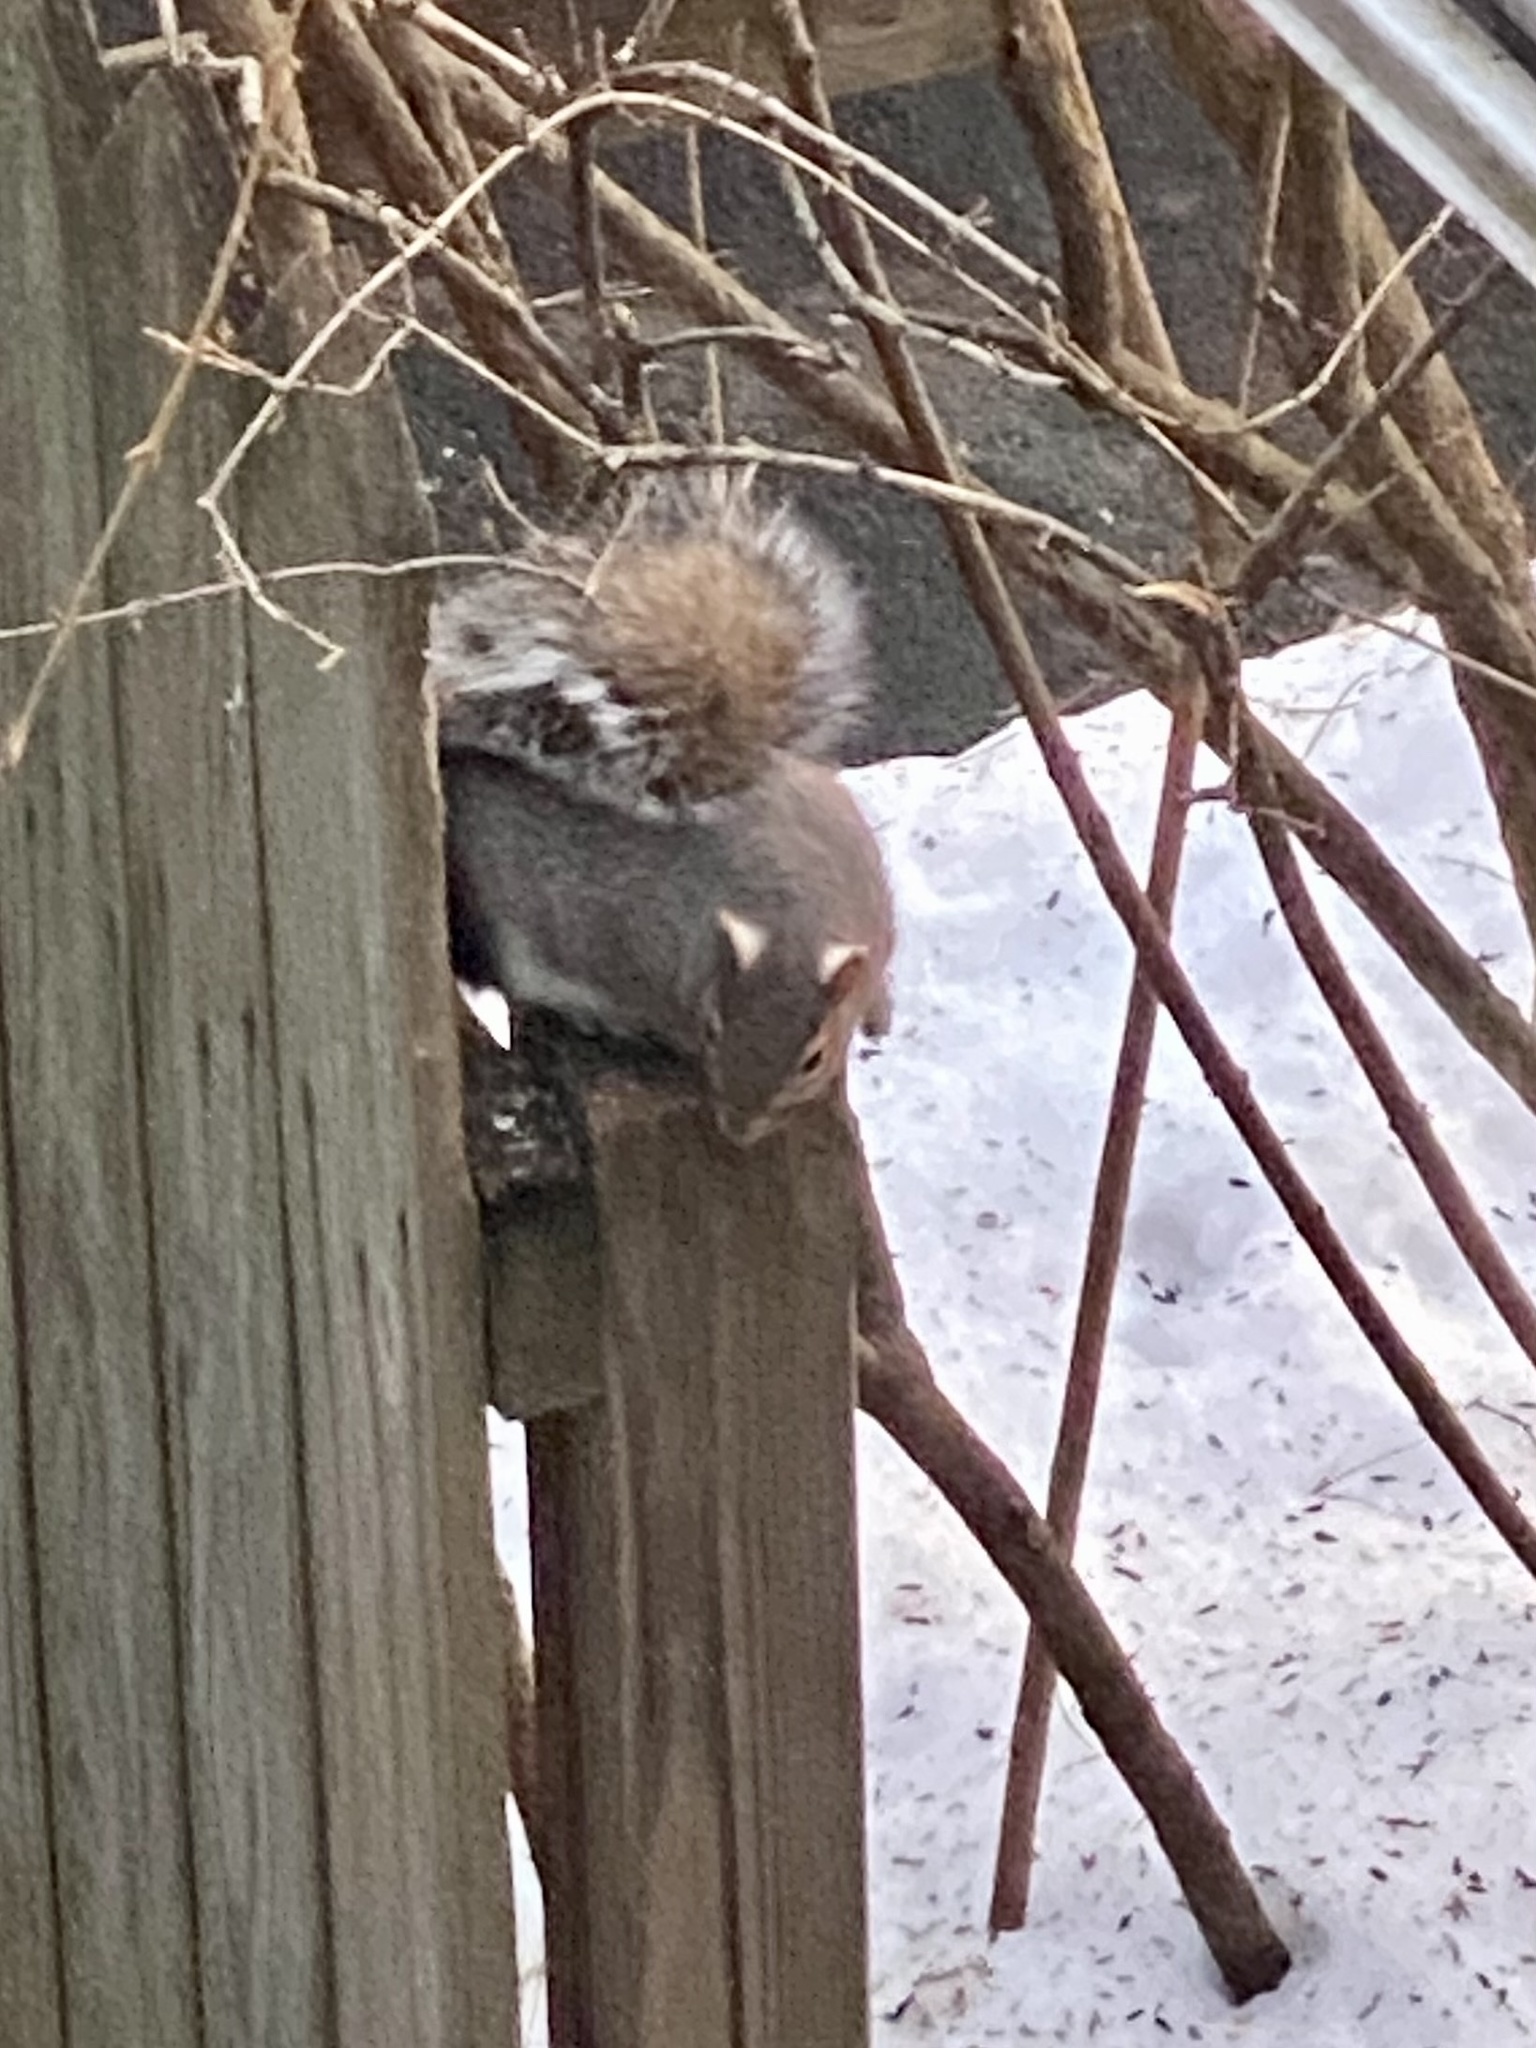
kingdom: Animalia
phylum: Chordata
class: Mammalia
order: Rodentia
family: Sciuridae
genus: Sciurus
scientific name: Sciurus carolinensis
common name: Eastern gray squirrel
